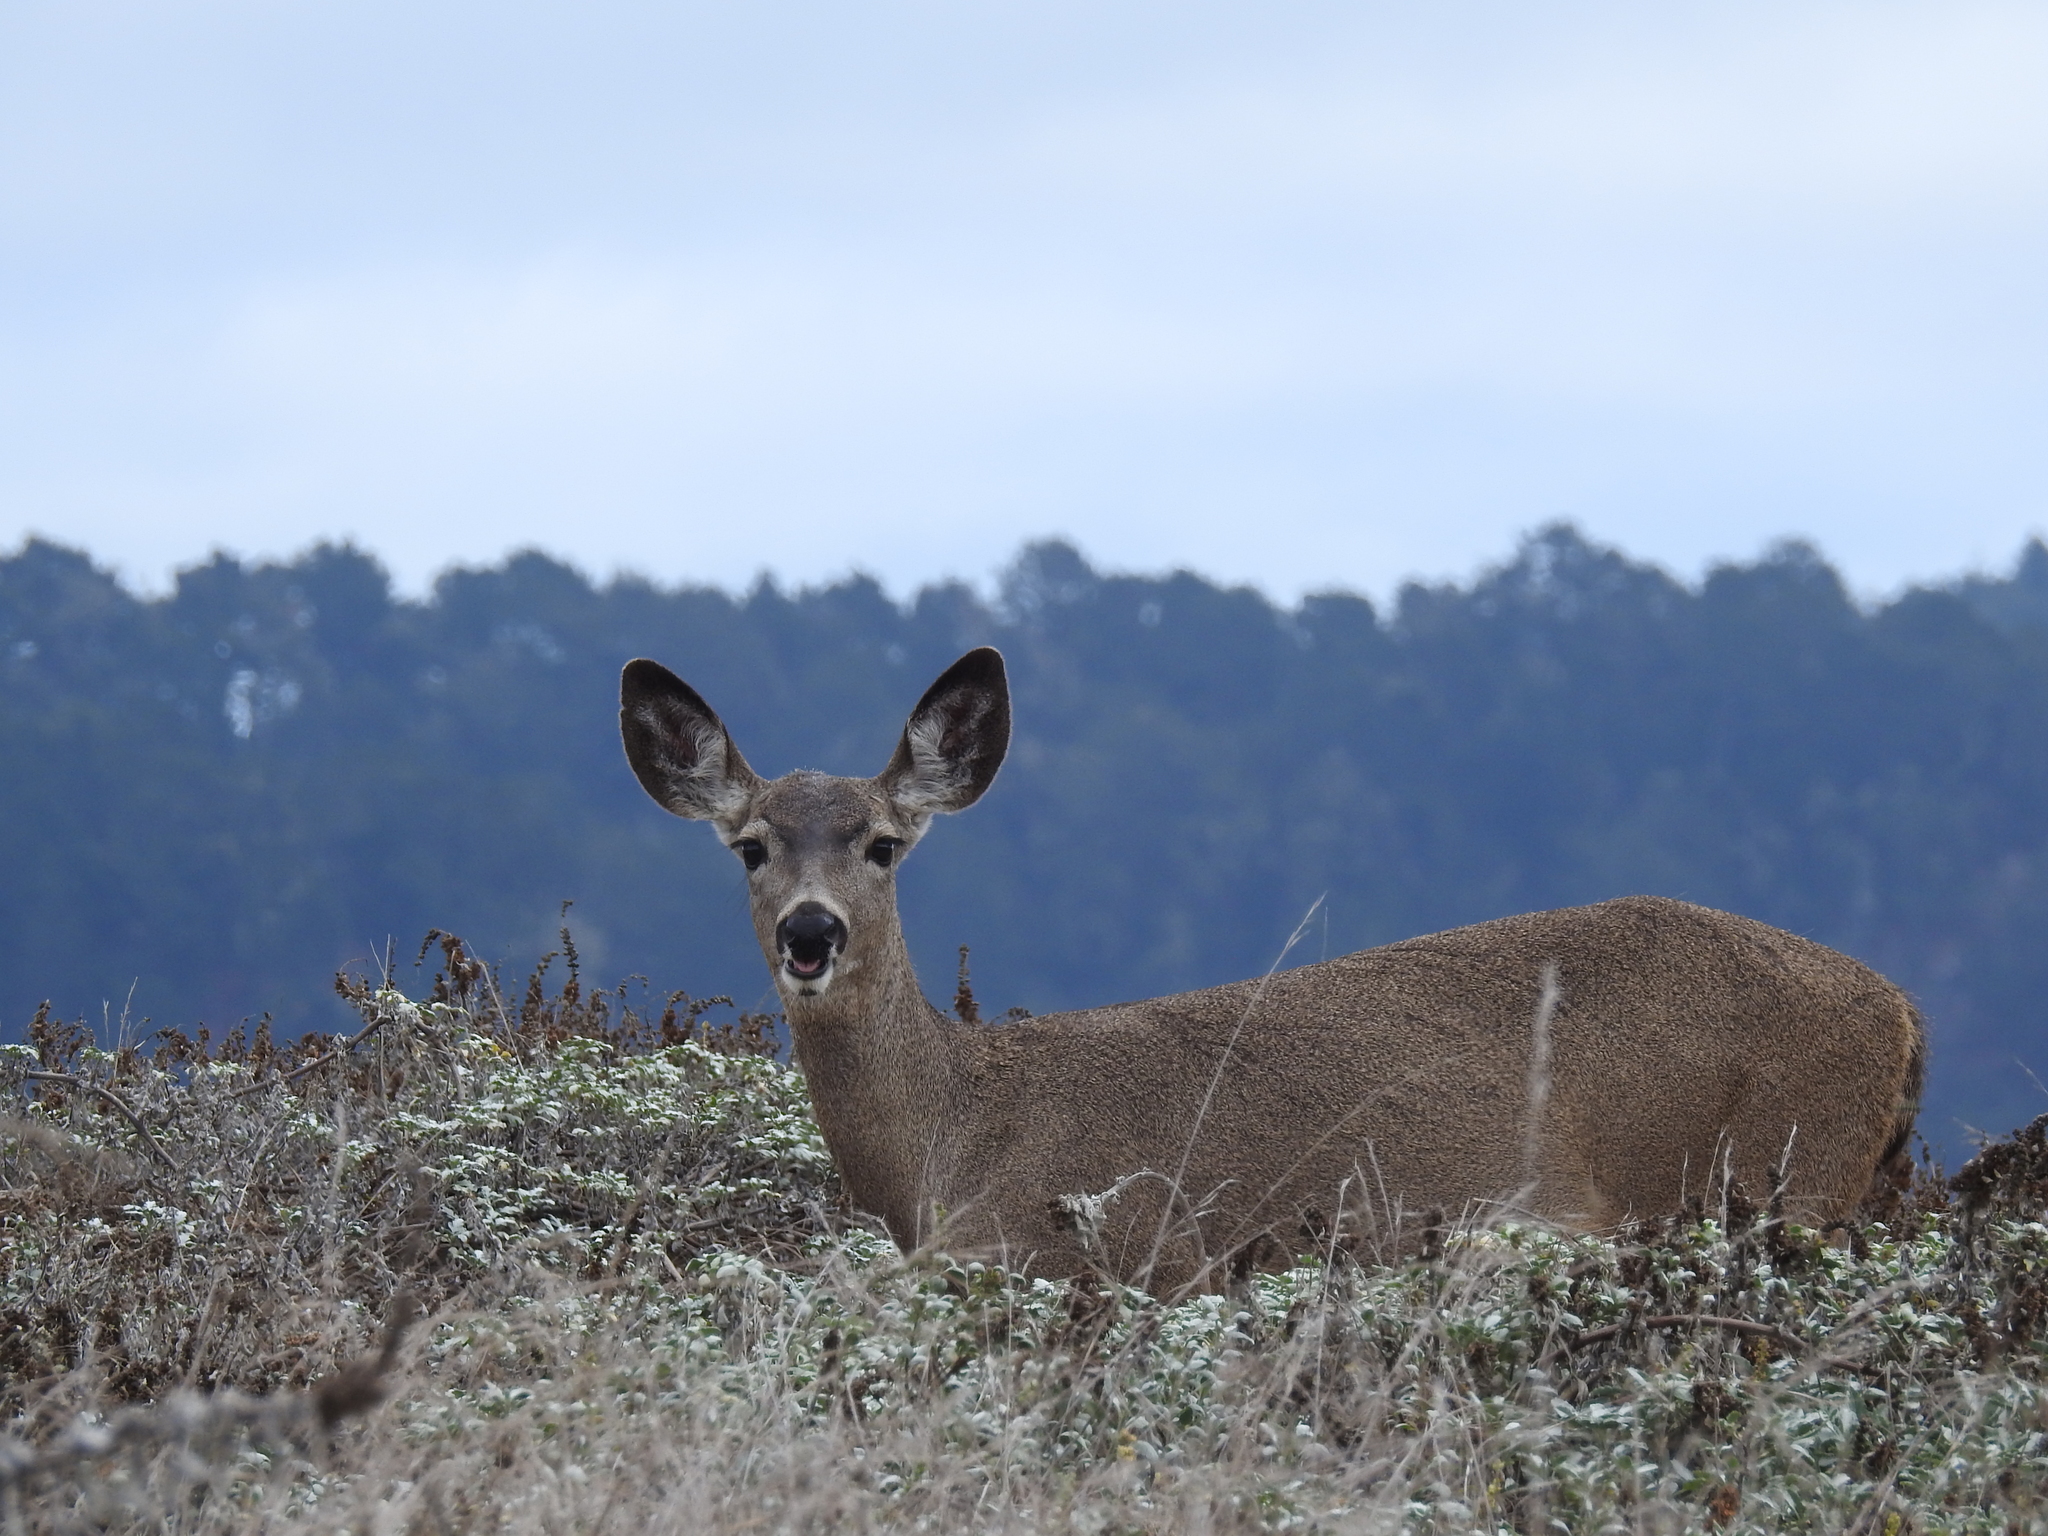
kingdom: Animalia
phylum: Chordata
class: Mammalia
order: Artiodactyla
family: Cervidae
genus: Odocoileus
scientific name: Odocoileus hemionus
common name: Mule deer
